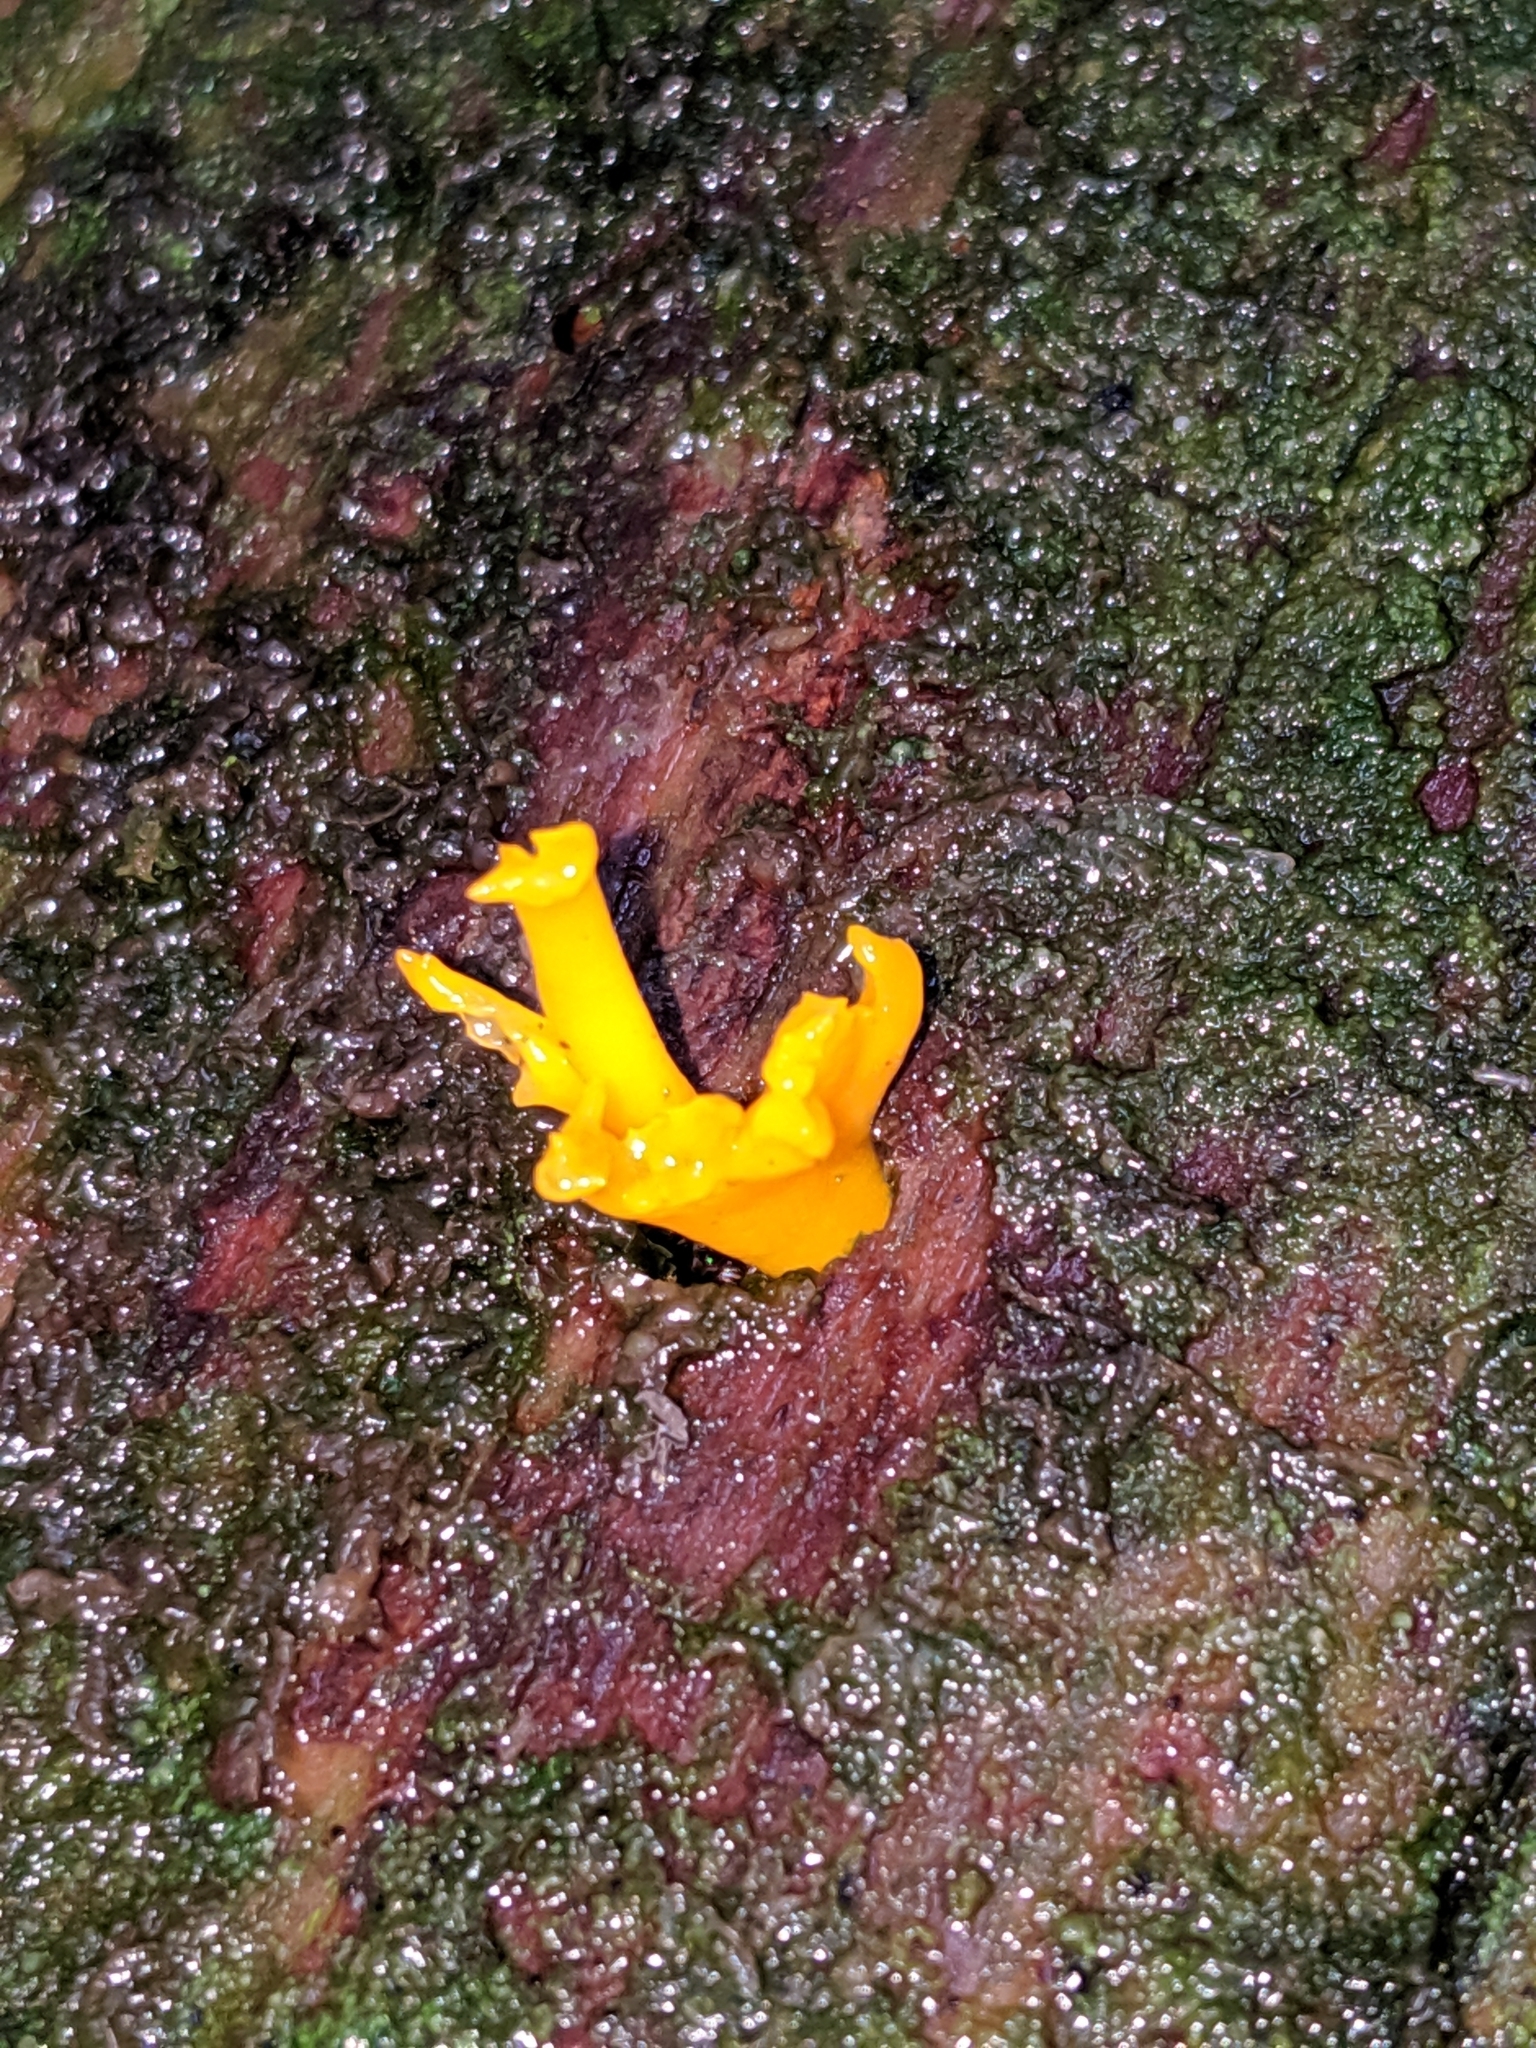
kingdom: Fungi
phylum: Basidiomycota
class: Dacrymycetes
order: Dacrymycetales
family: Dacrymycetaceae
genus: Calocera
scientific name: Calocera viscosa
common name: Yellow stagshorn
